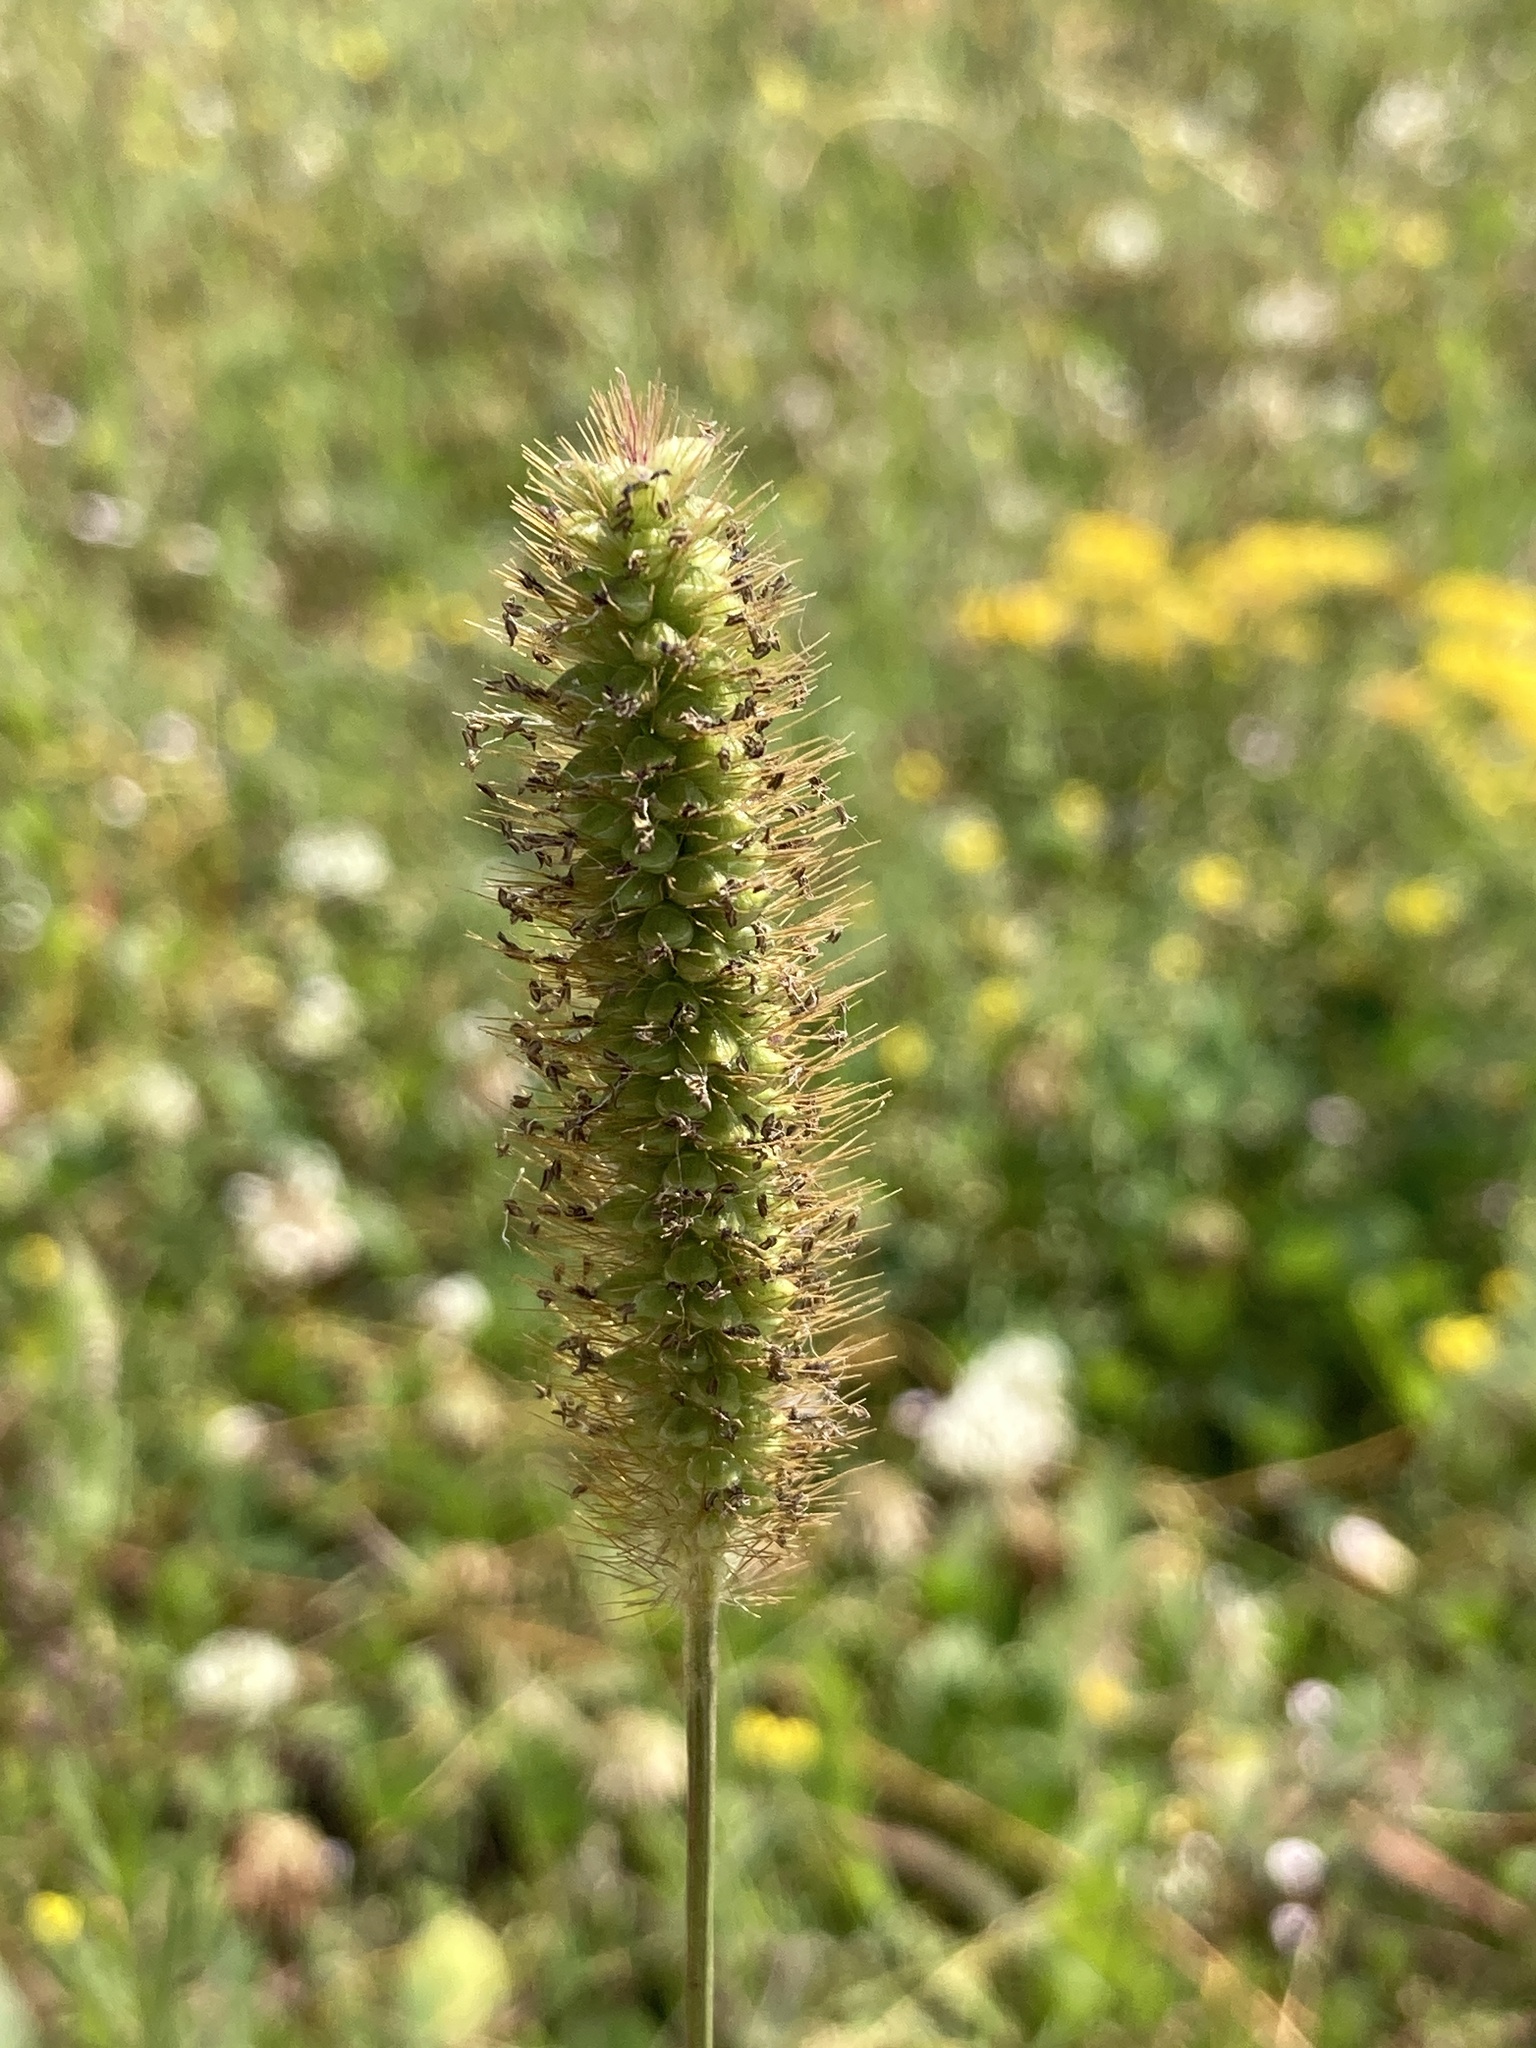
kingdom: Plantae
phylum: Tracheophyta
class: Liliopsida
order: Poales
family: Poaceae
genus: Setaria
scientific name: Setaria pumila
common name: Yellow bristle-grass
